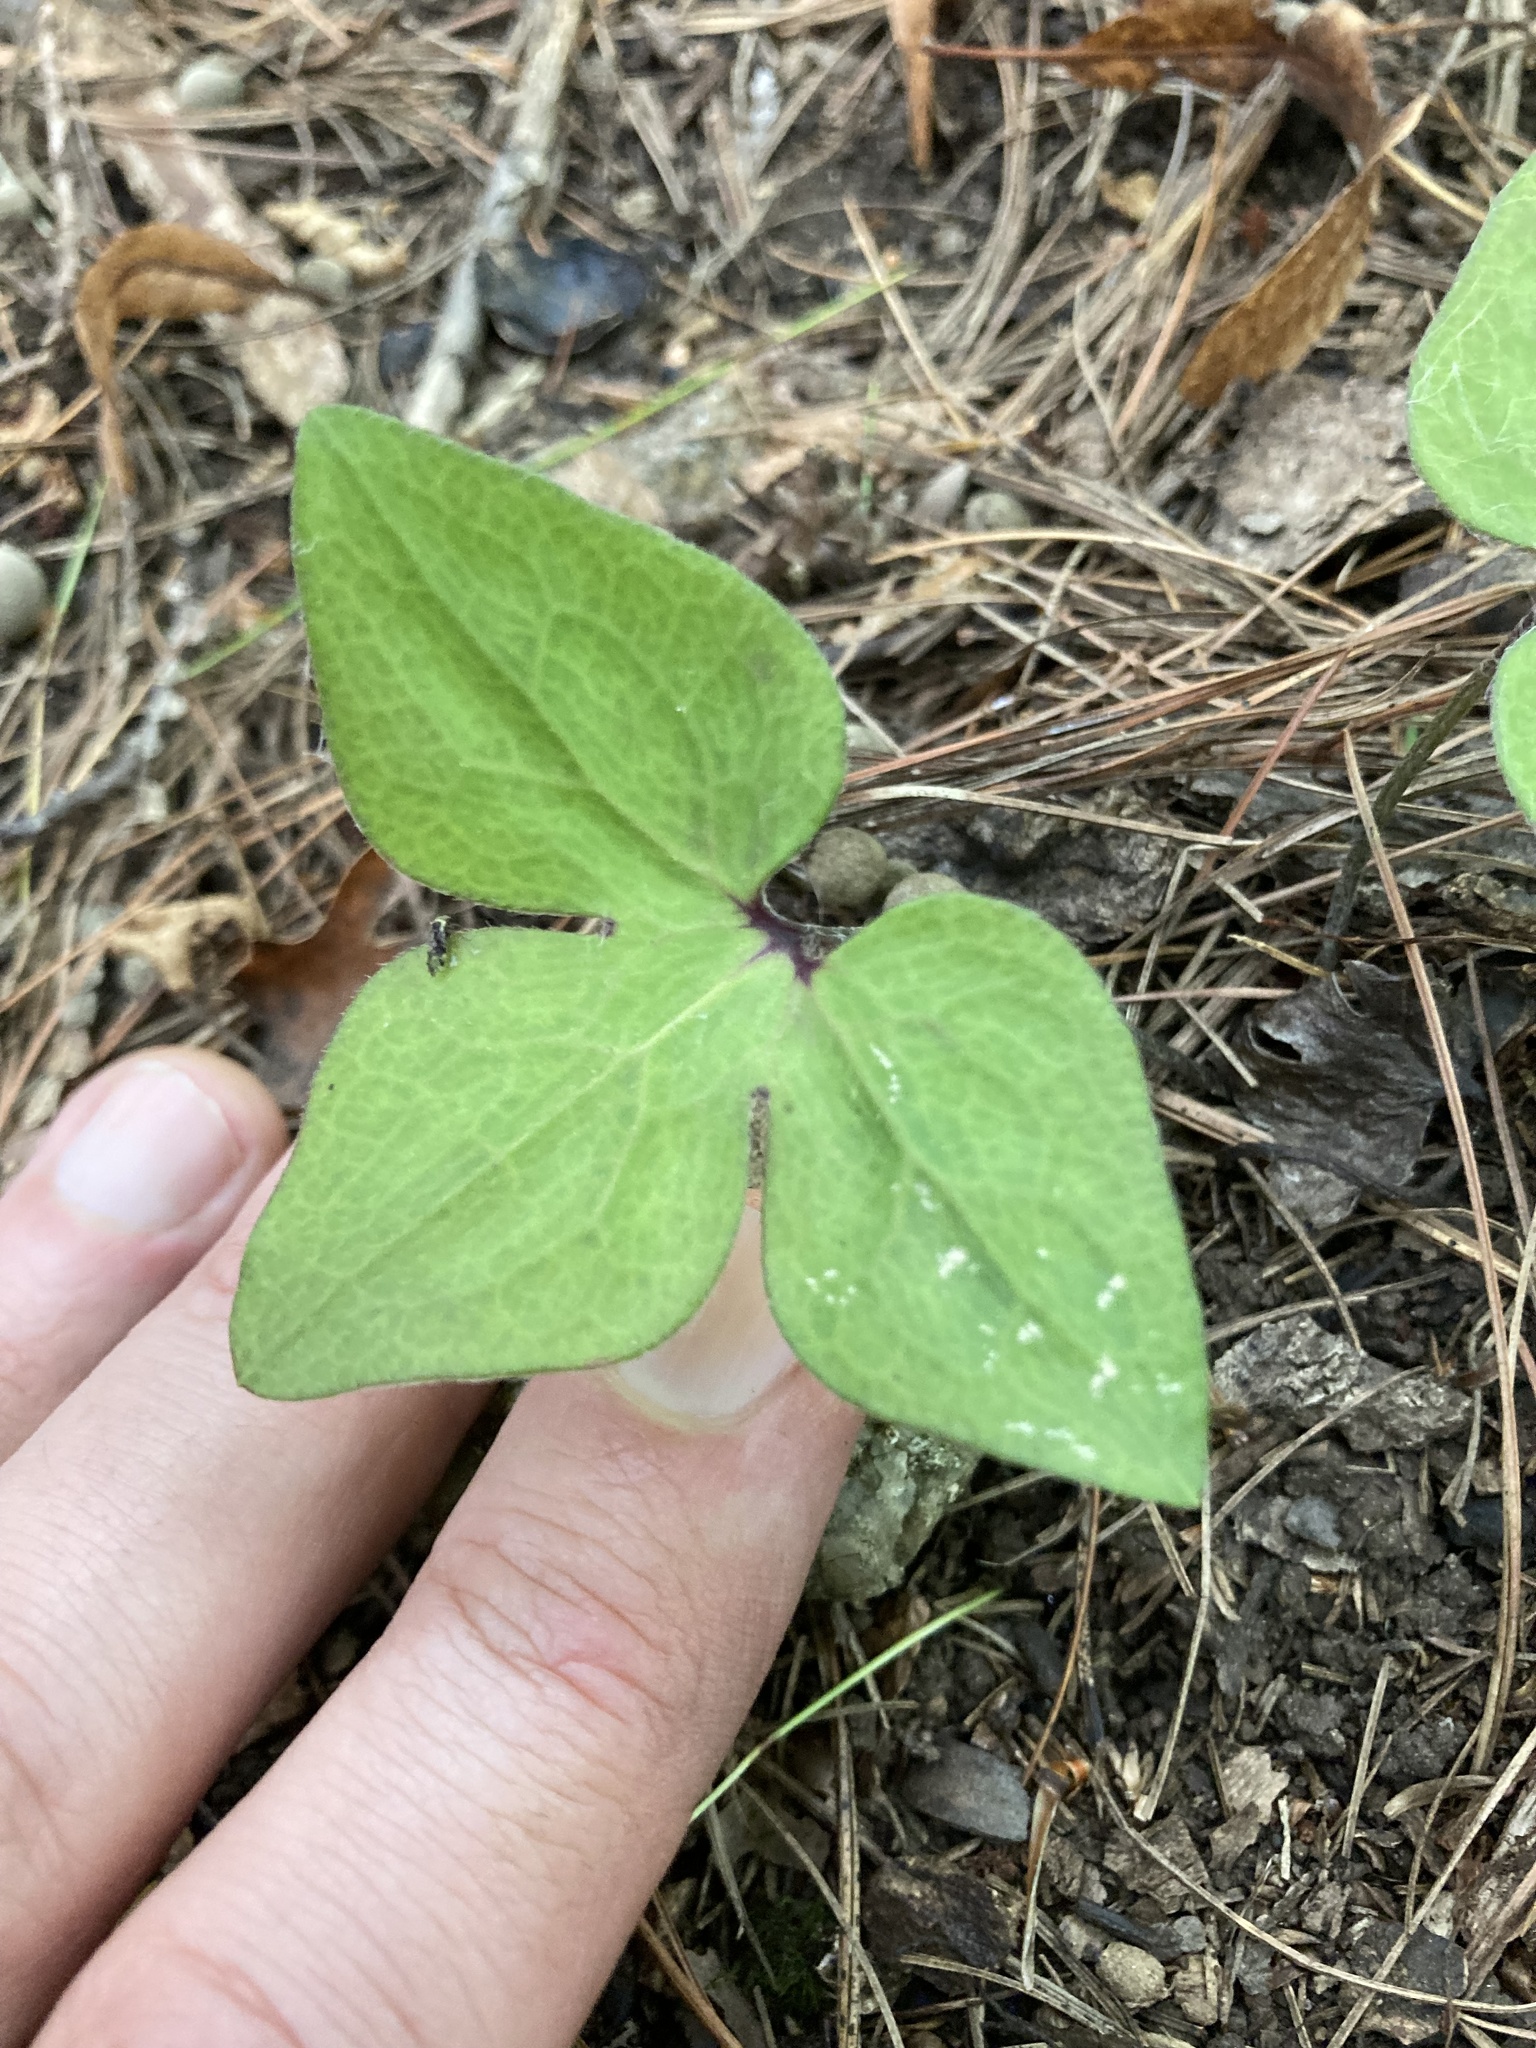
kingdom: Plantae
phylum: Tracheophyta
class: Magnoliopsida
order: Ranunculales
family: Ranunculaceae
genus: Hepatica
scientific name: Hepatica acutiloba
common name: Sharp-lobed hepatica
